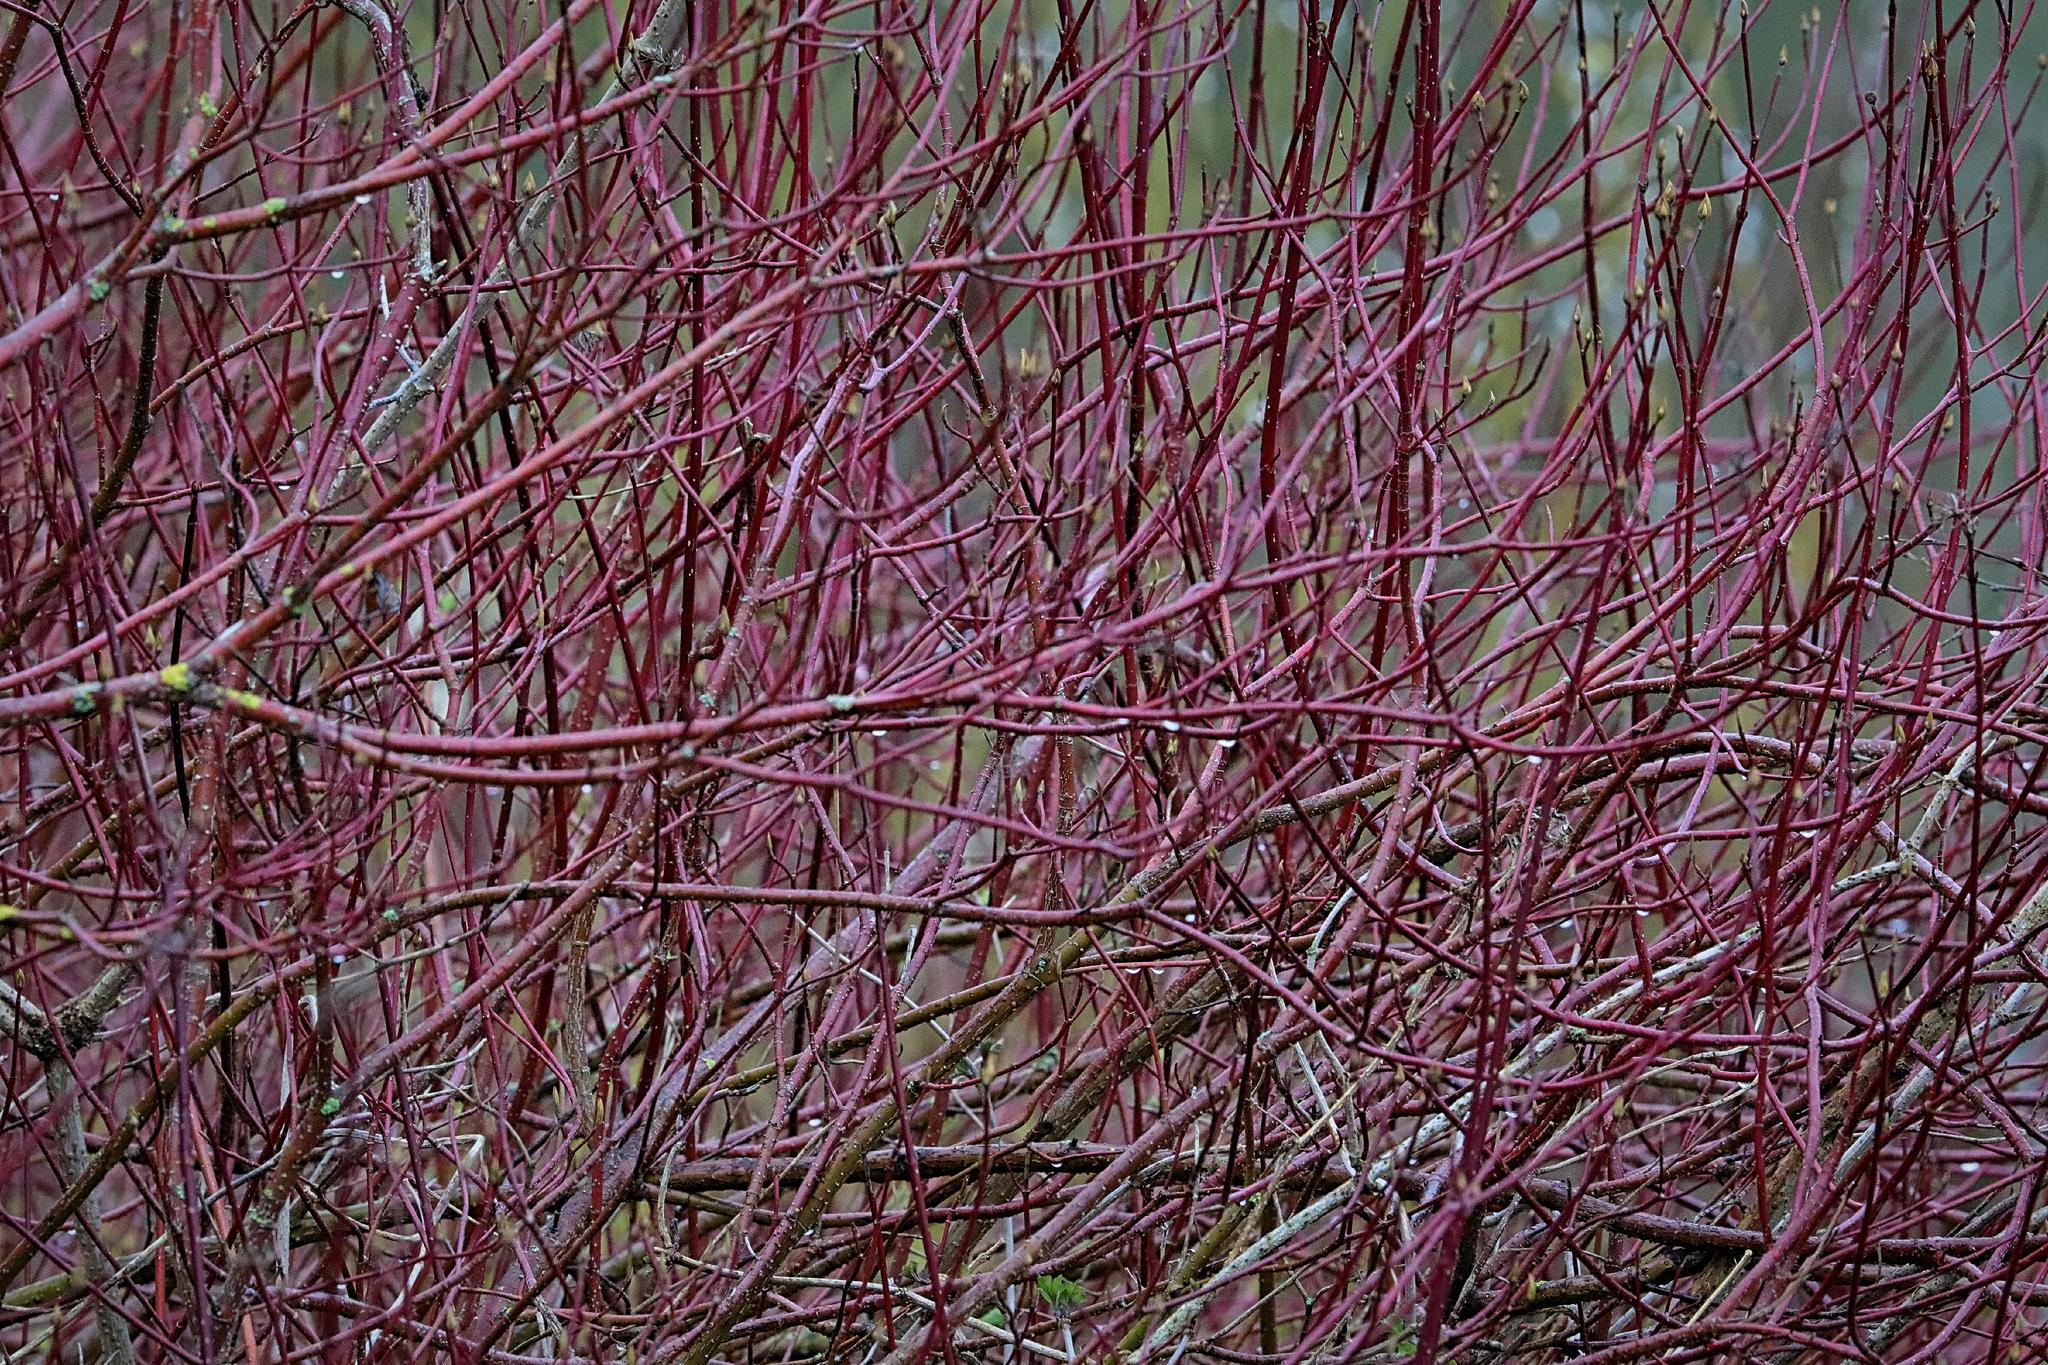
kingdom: Plantae
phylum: Tracheophyta
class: Magnoliopsida
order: Cornales
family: Cornaceae
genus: Cornus
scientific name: Cornus sanguinea
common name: Dogwood
